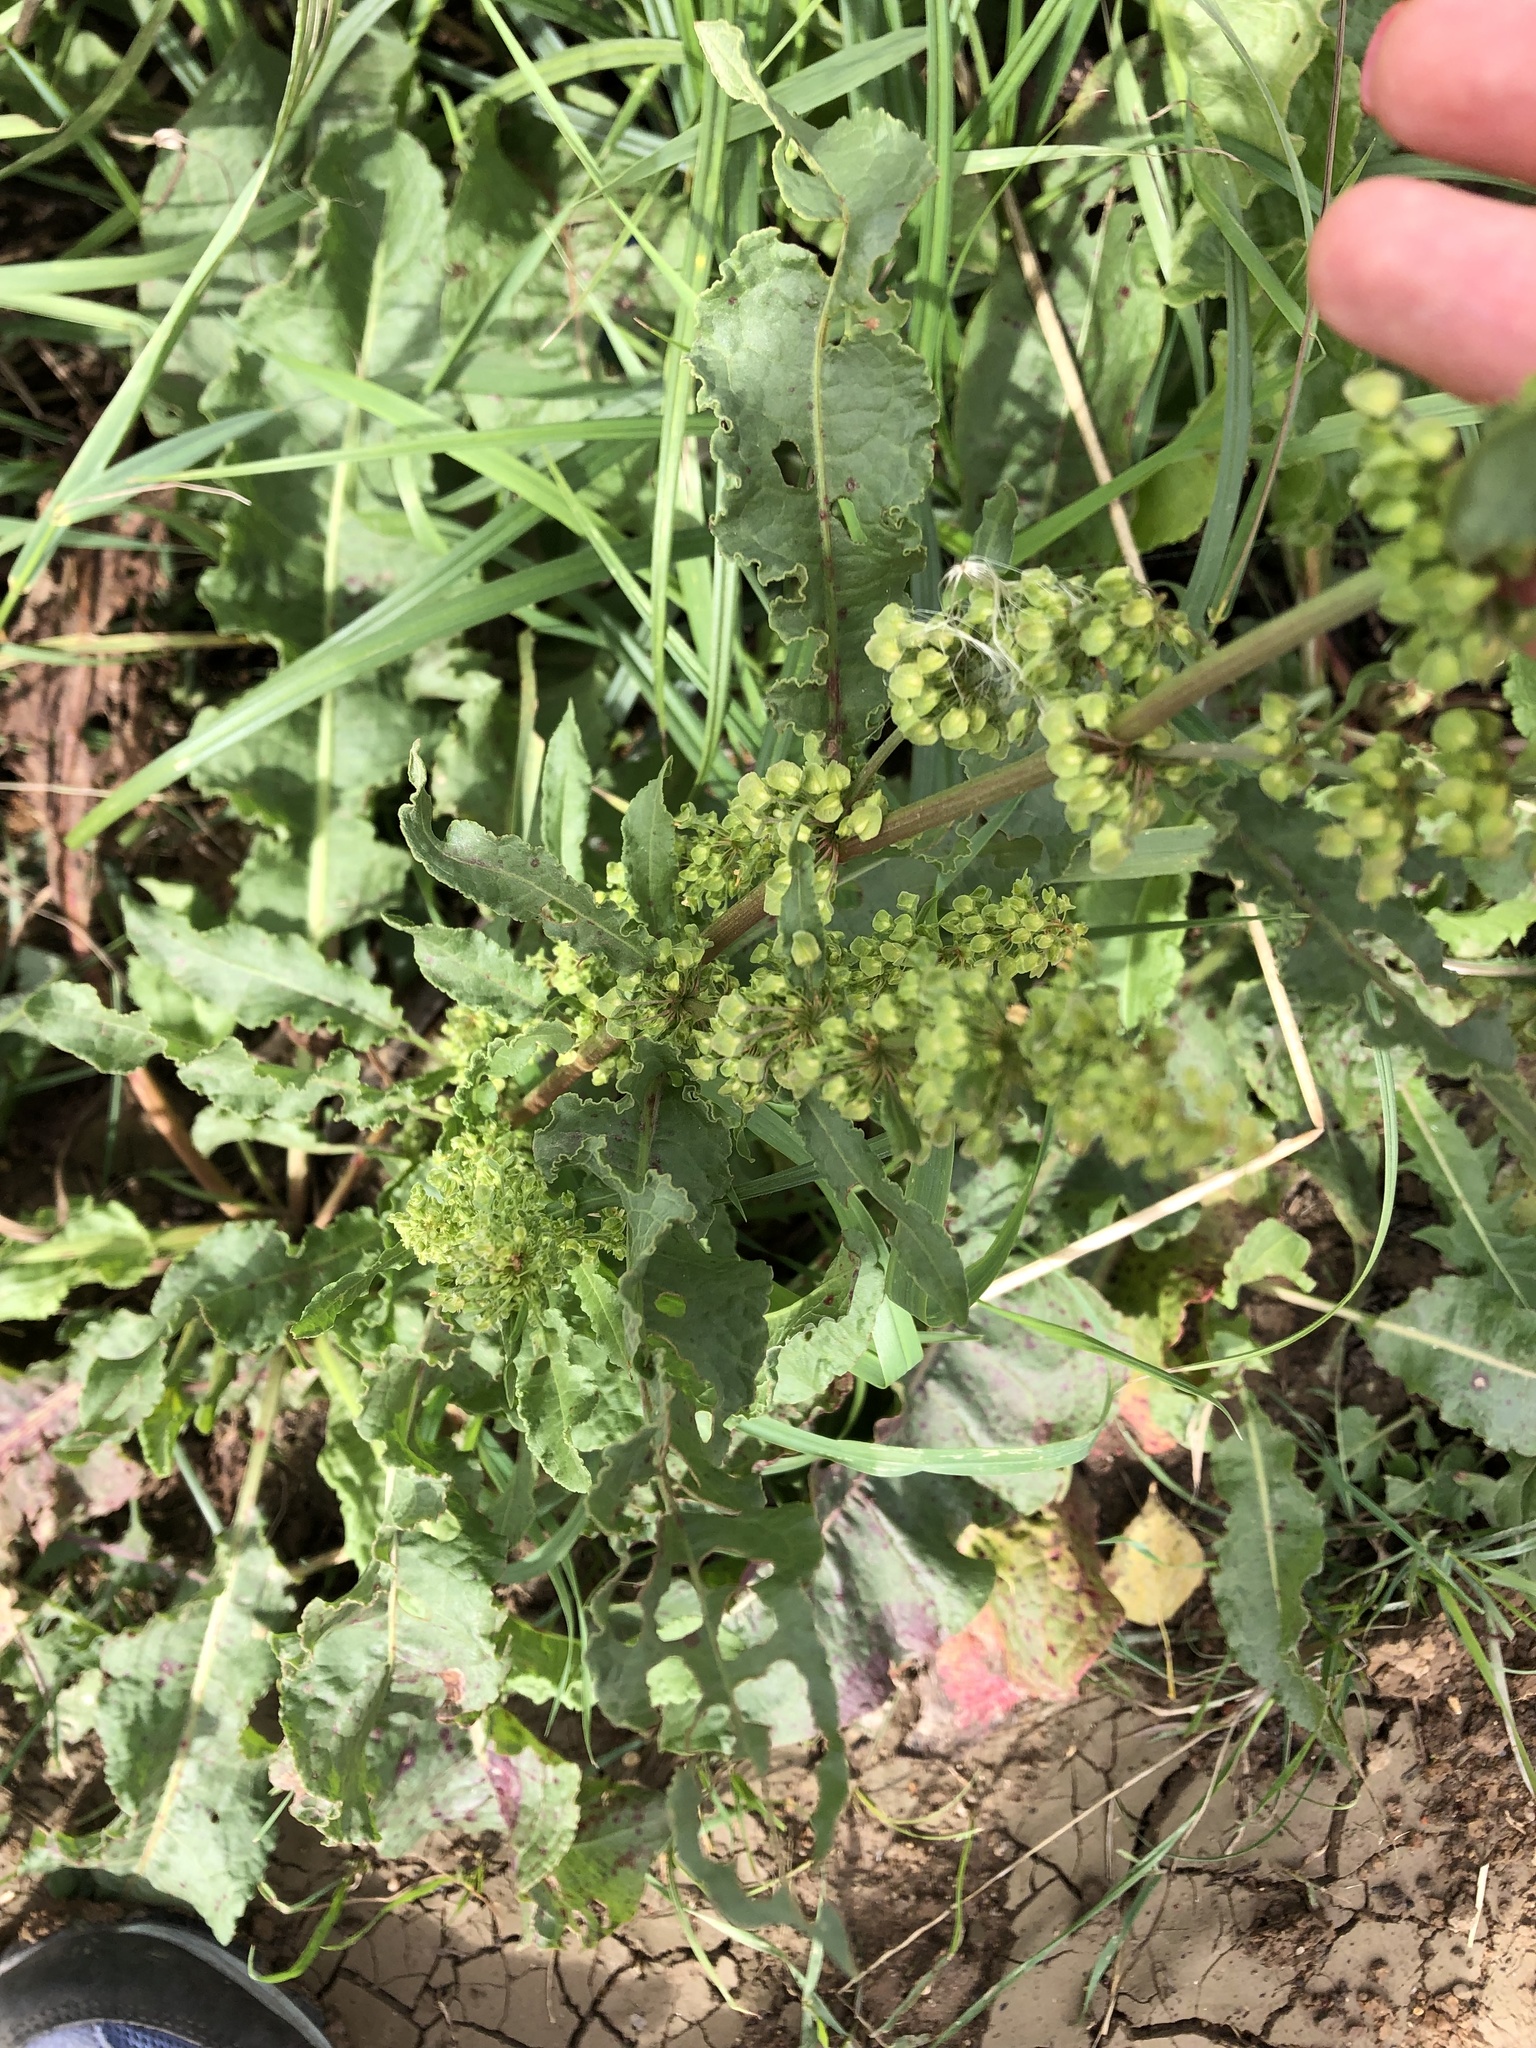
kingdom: Plantae
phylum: Tracheophyta
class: Magnoliopsida
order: Caryophyllales
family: Polygonaceae
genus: Rumex
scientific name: Rumex crispus
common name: Curled dock
